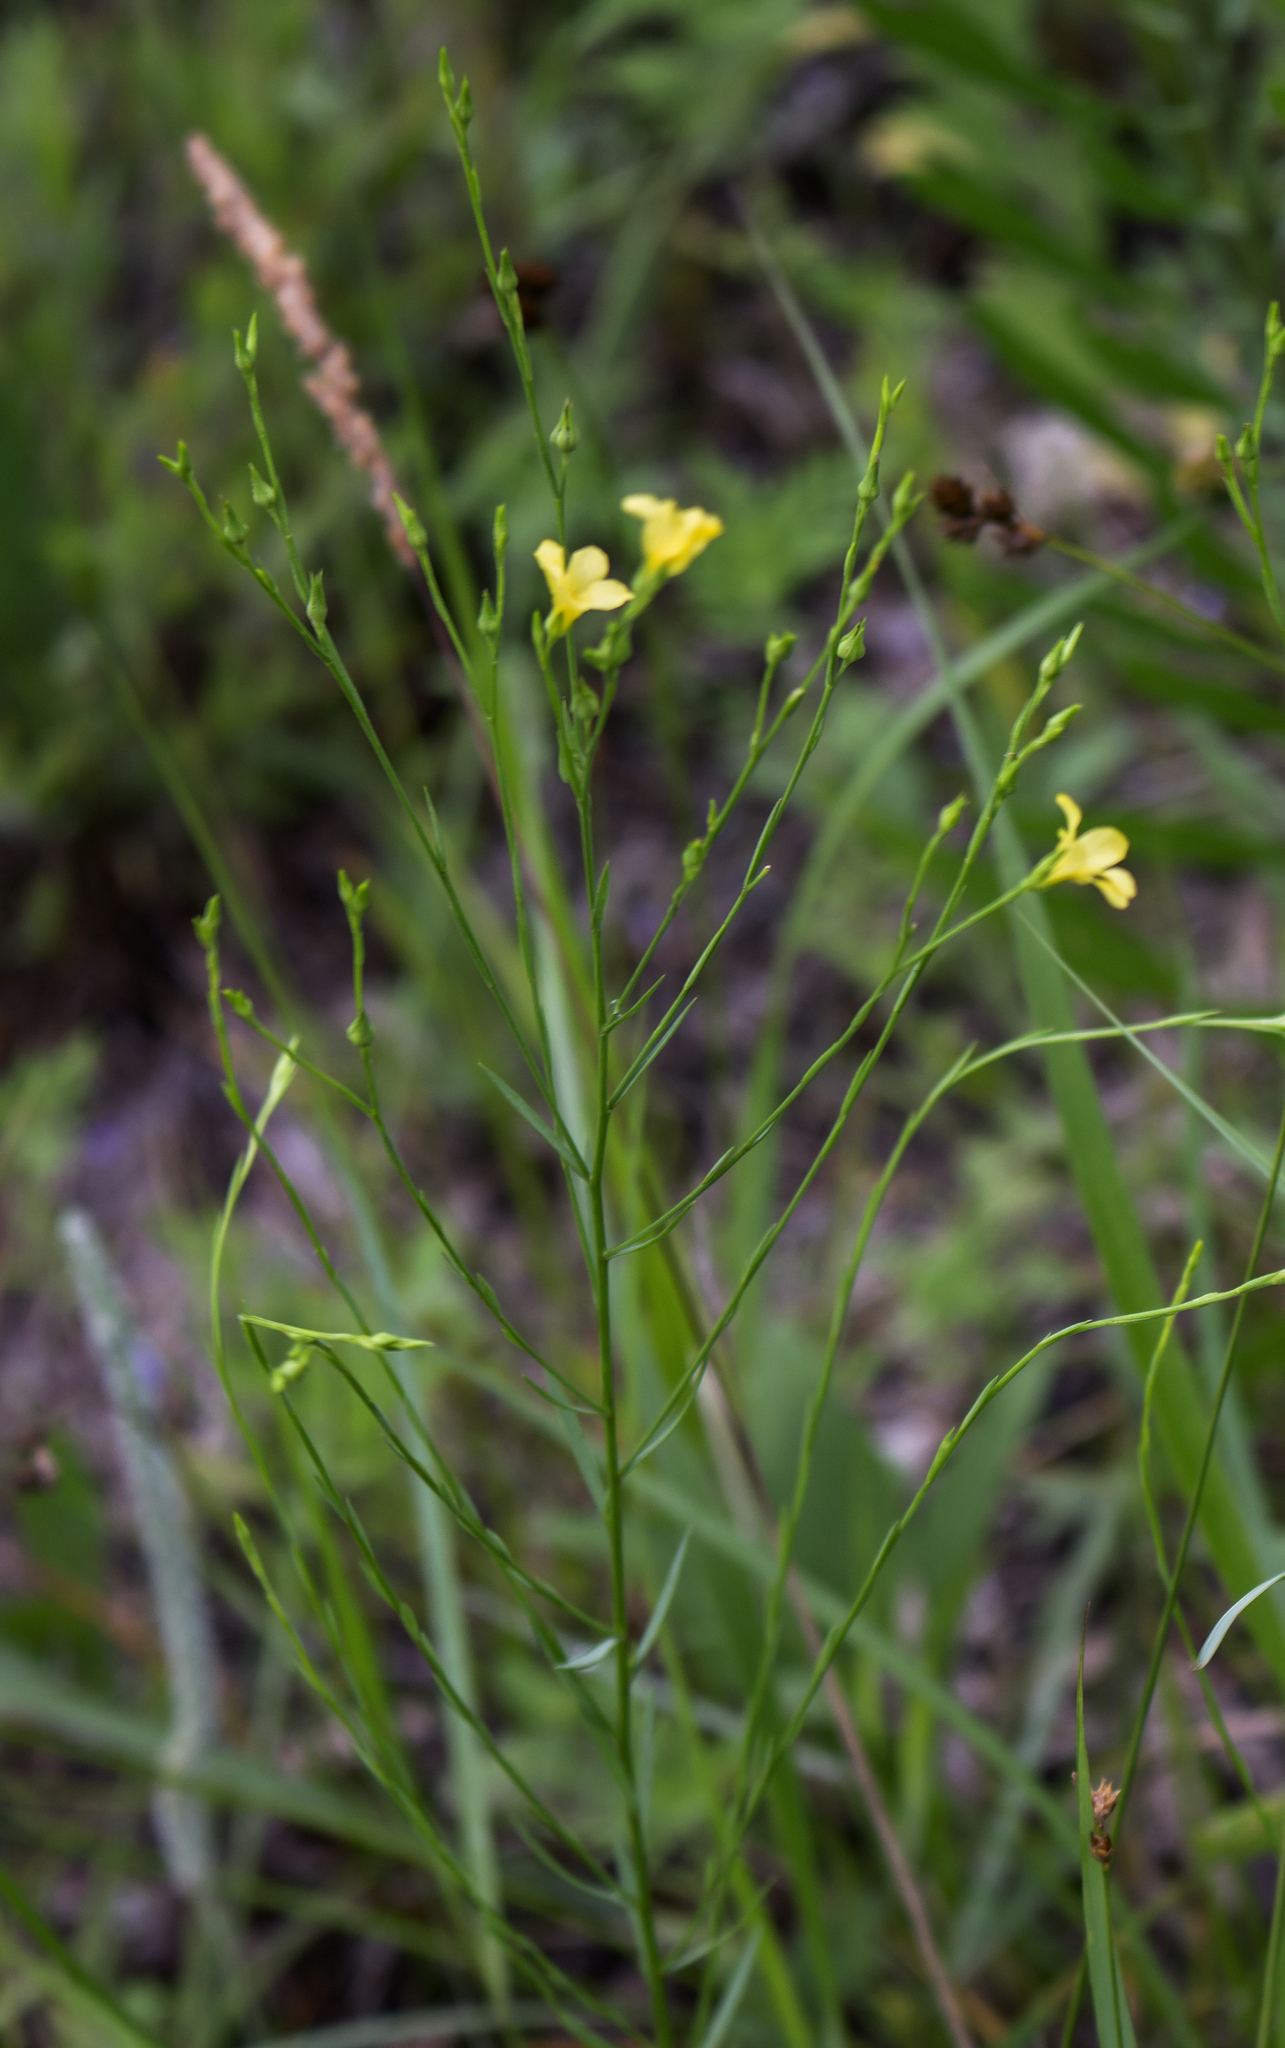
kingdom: Plantae
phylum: Tracheophyta
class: Magnoliopsida
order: Malpighiales
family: Linaceae
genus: Linum
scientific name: Linum sulcatum
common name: Grooved flax
